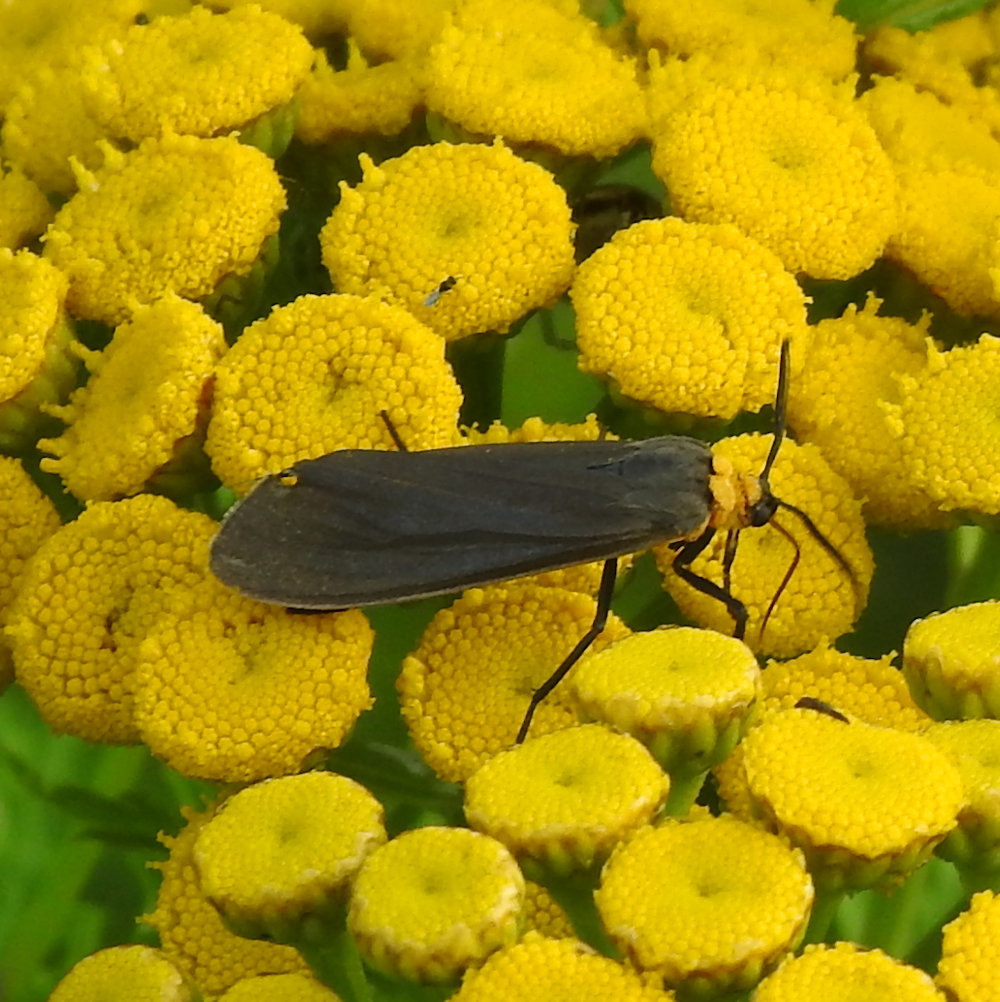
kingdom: Animalia
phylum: Arthropoda
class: Insecta
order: Lepidoptera
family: Erebidae
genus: Cisseps
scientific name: Cisseps fulvicollis
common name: Yellow-collared scape moth
